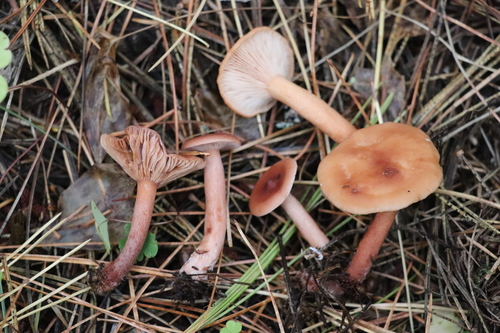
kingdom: Fungi
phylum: Basidiomycota
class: Agaricomycetes
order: Russulales
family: Russulaceae
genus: Lactarius
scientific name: Lactarius aurantiacus
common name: Orange milkcap
